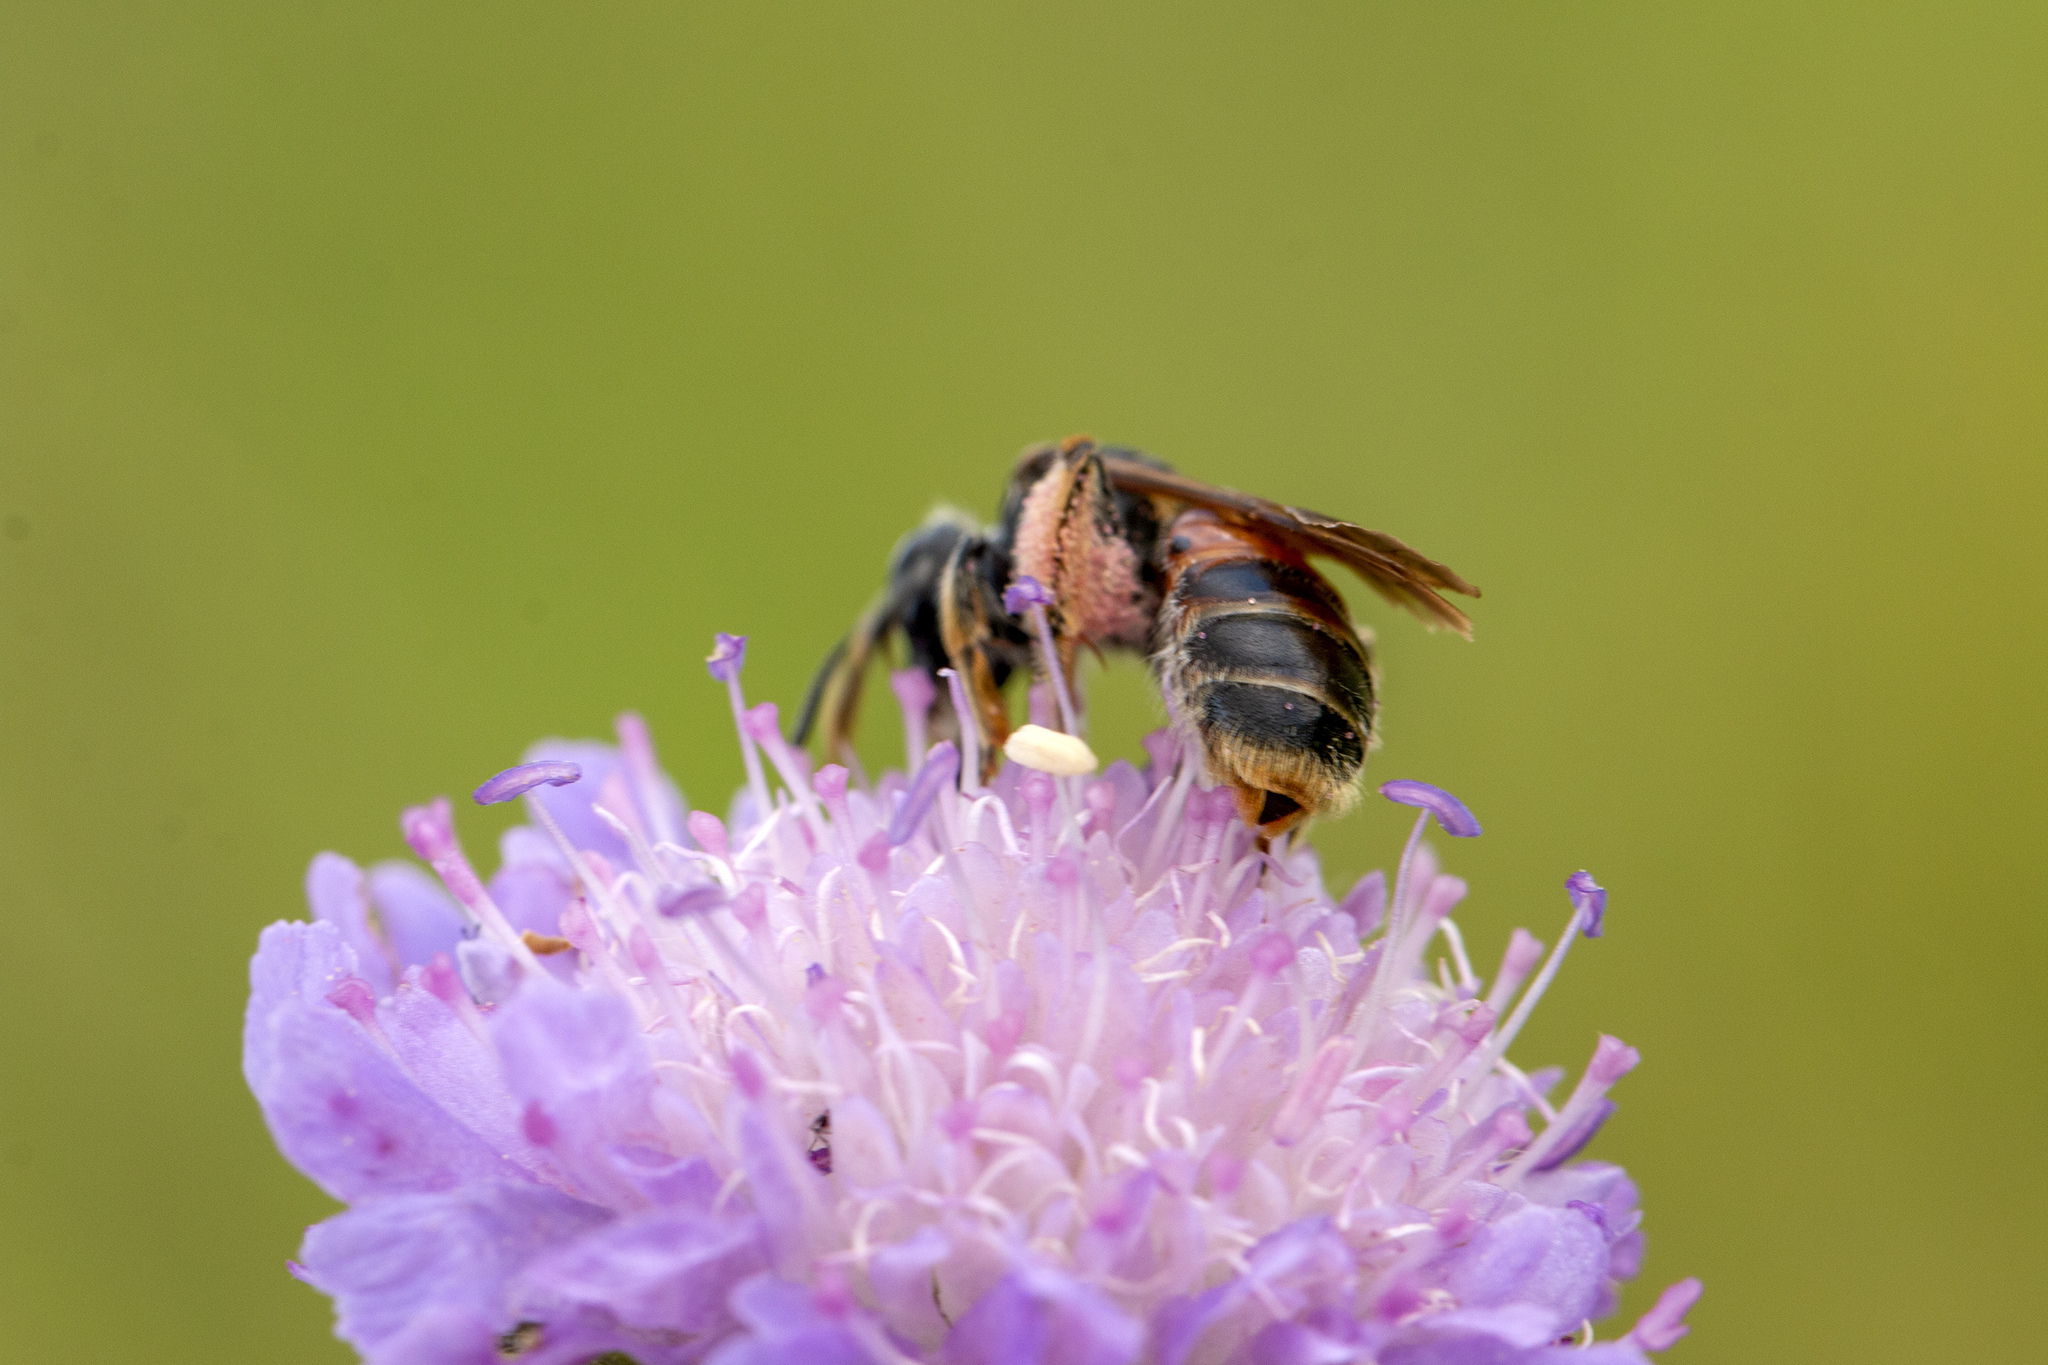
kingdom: Animalia
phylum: Arthropoda
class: Insecta
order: Hymenoptera
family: Andrenidae
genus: Andrena
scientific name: Andrena hattorfiana
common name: Large scabious mining bee
